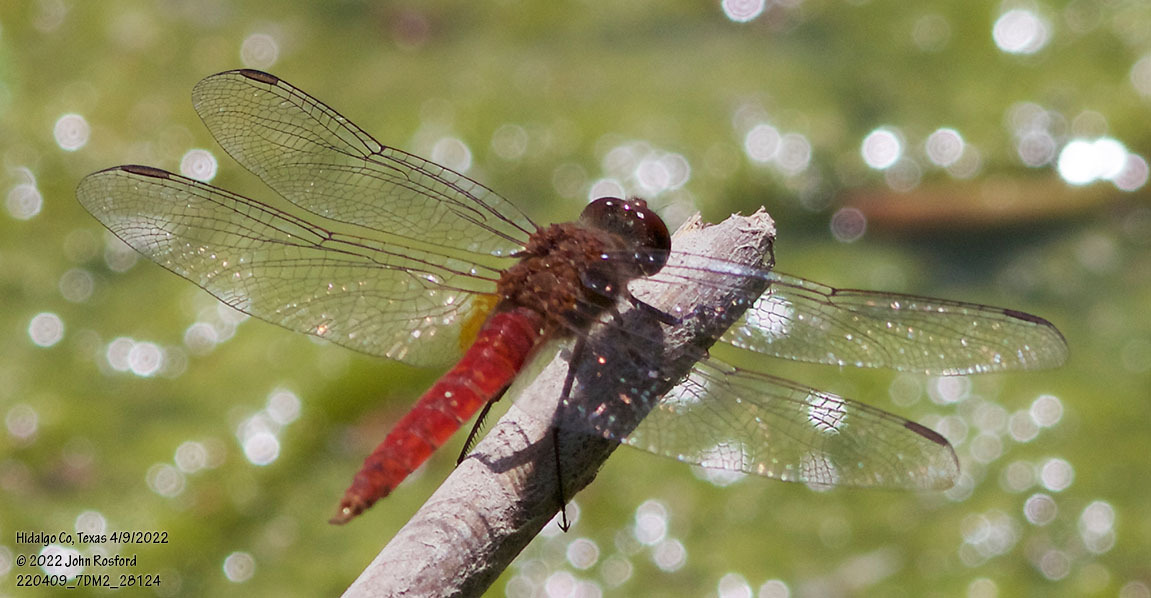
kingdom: Animalia
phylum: Arthropoda
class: Insecta
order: Odonata
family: Libellulidae
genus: Brachymesia
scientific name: Brachymesia furcata
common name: Red-taled pennant
